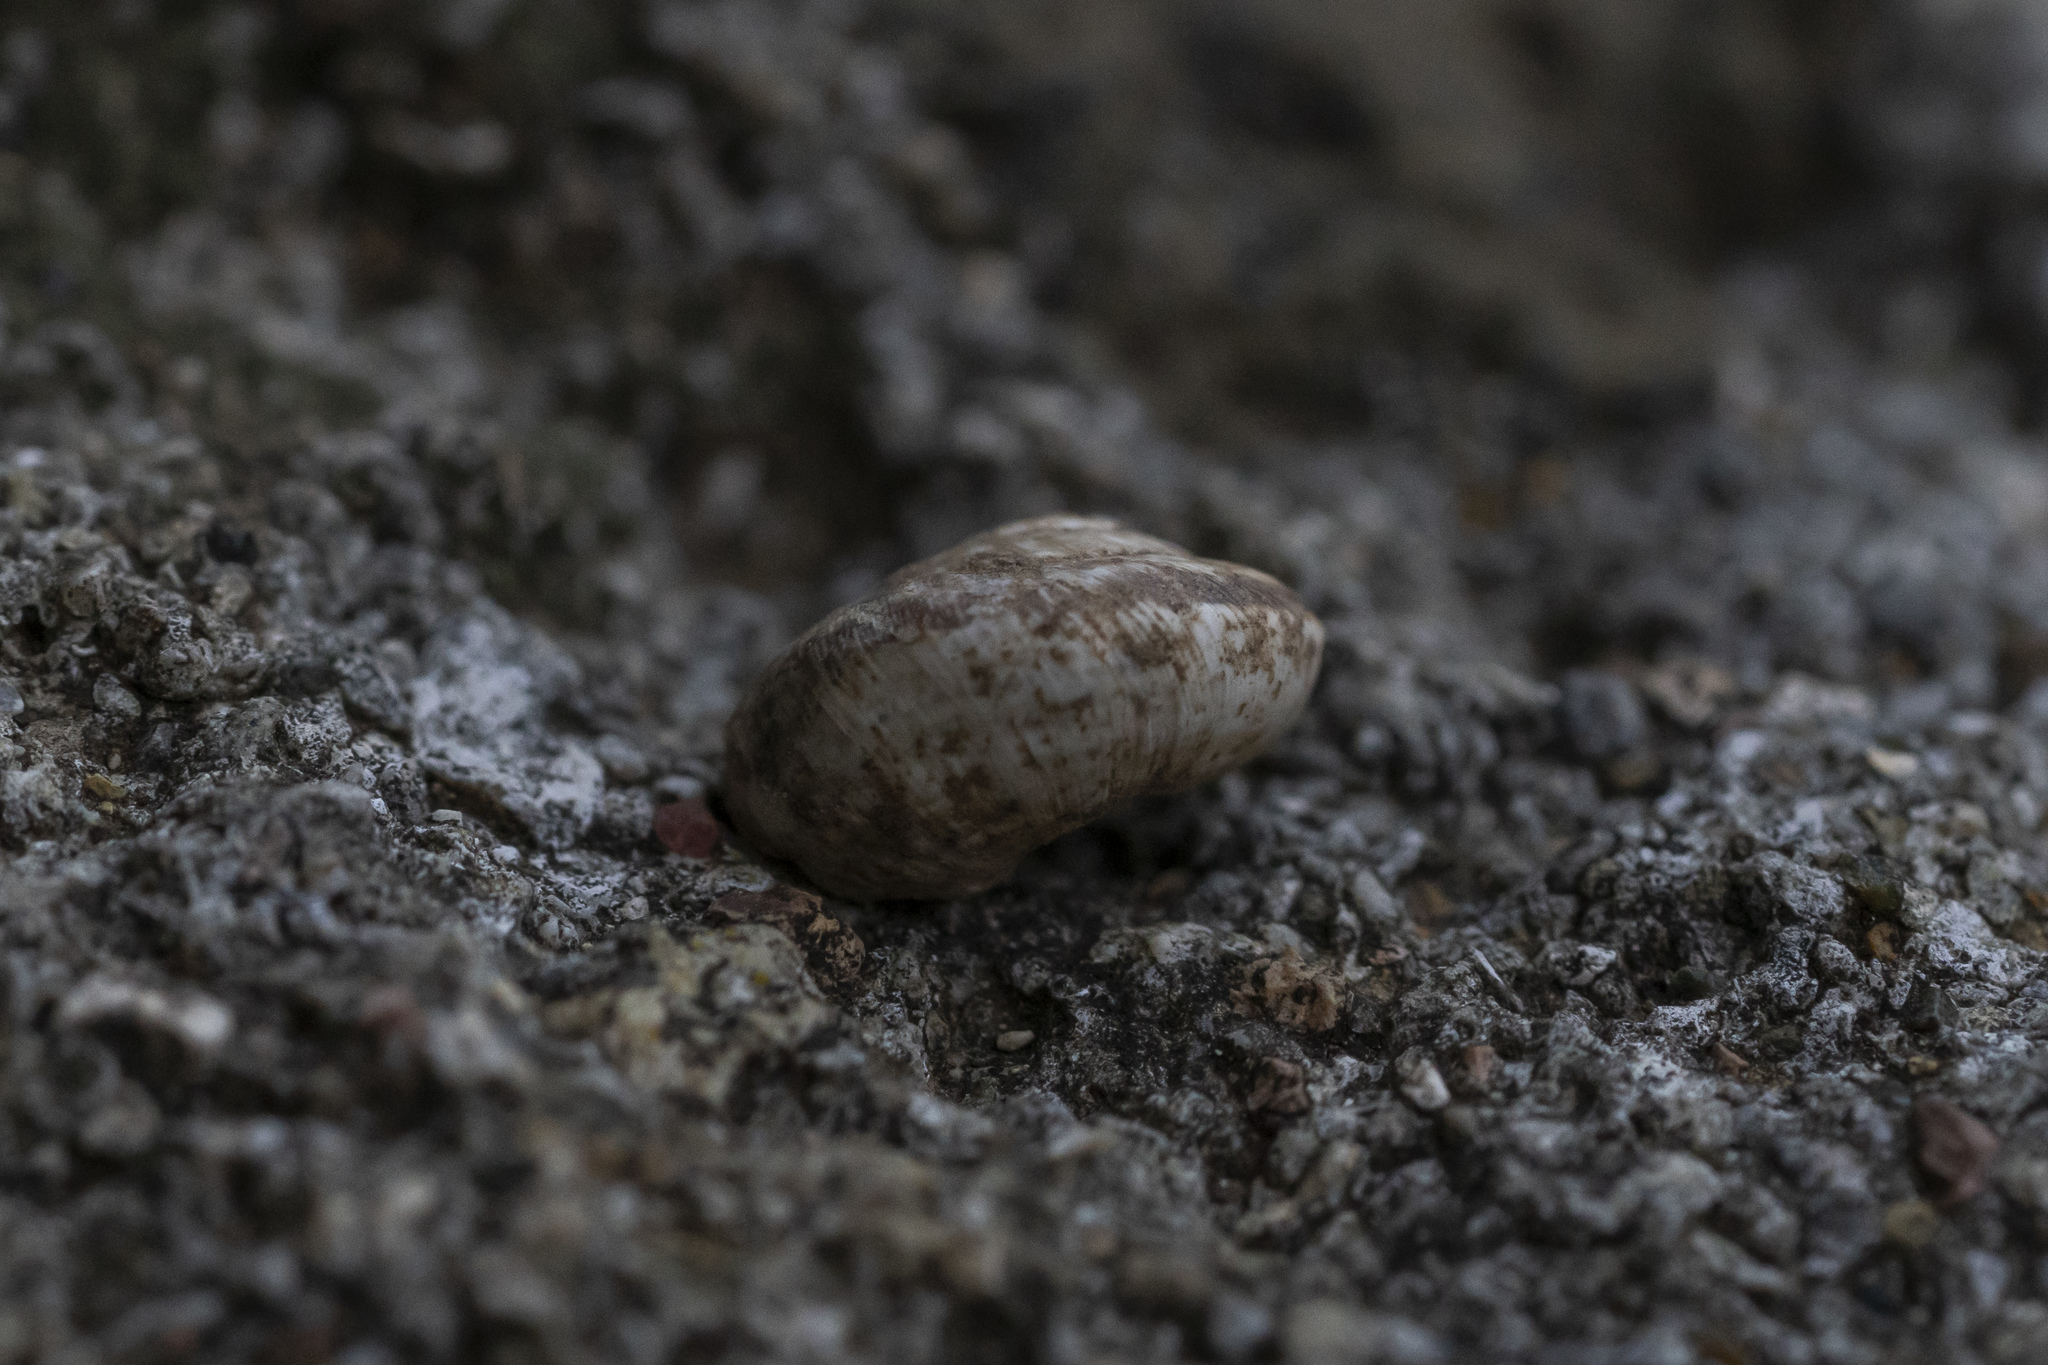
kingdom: Animalia
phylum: Mollusca
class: Gastropoda
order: Stylommatophora
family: Geomitridae
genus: Cernuella
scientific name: Cernuella virgata
